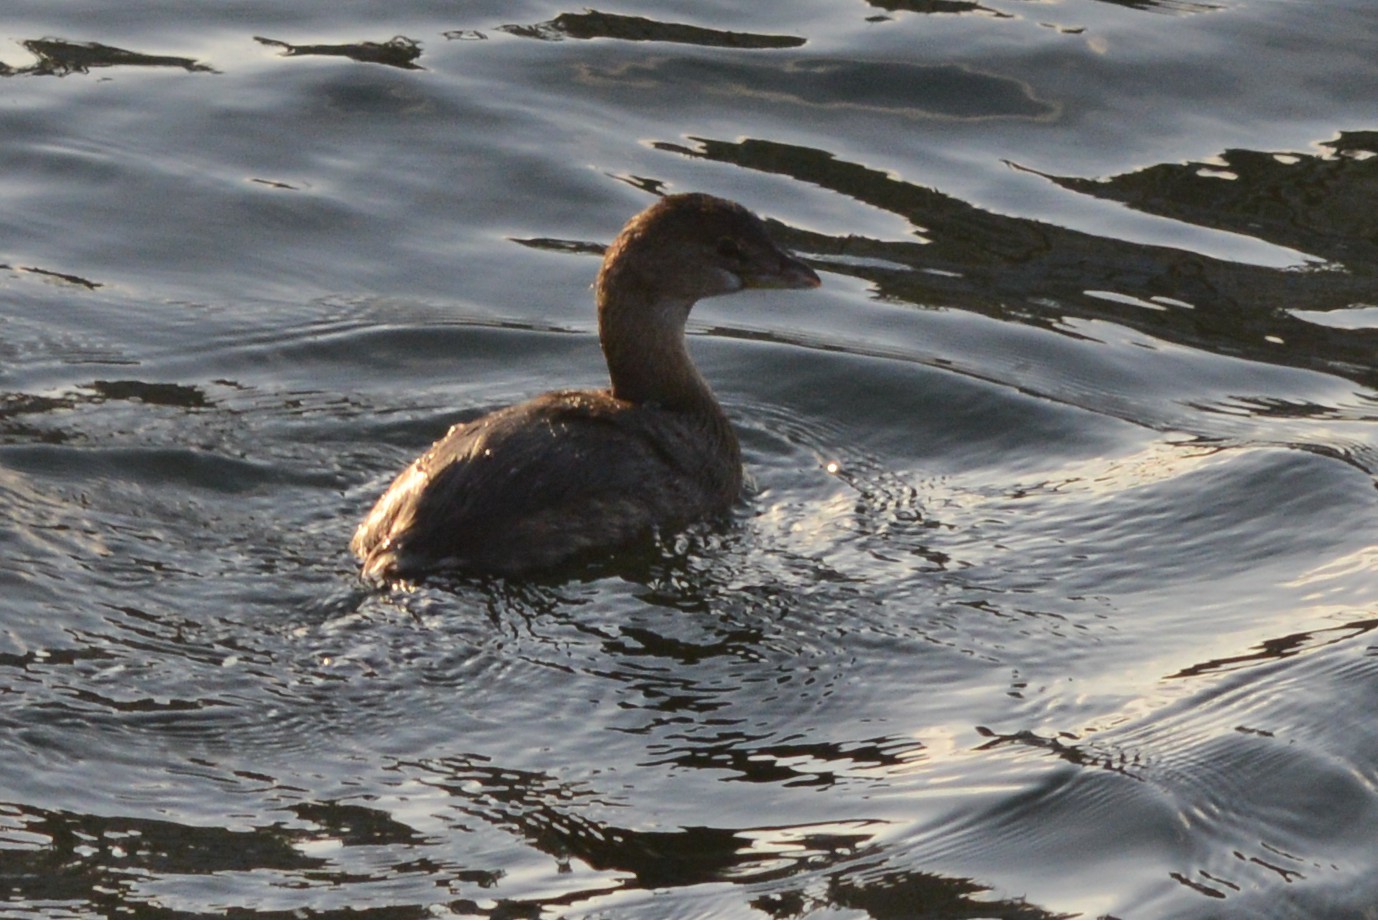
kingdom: Animalia
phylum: Chordata
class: Aves
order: Podicipediformes
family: Podicipedidae
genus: Podilymbus
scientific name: Podilymbus podiceps
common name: Pied-billed grebe
